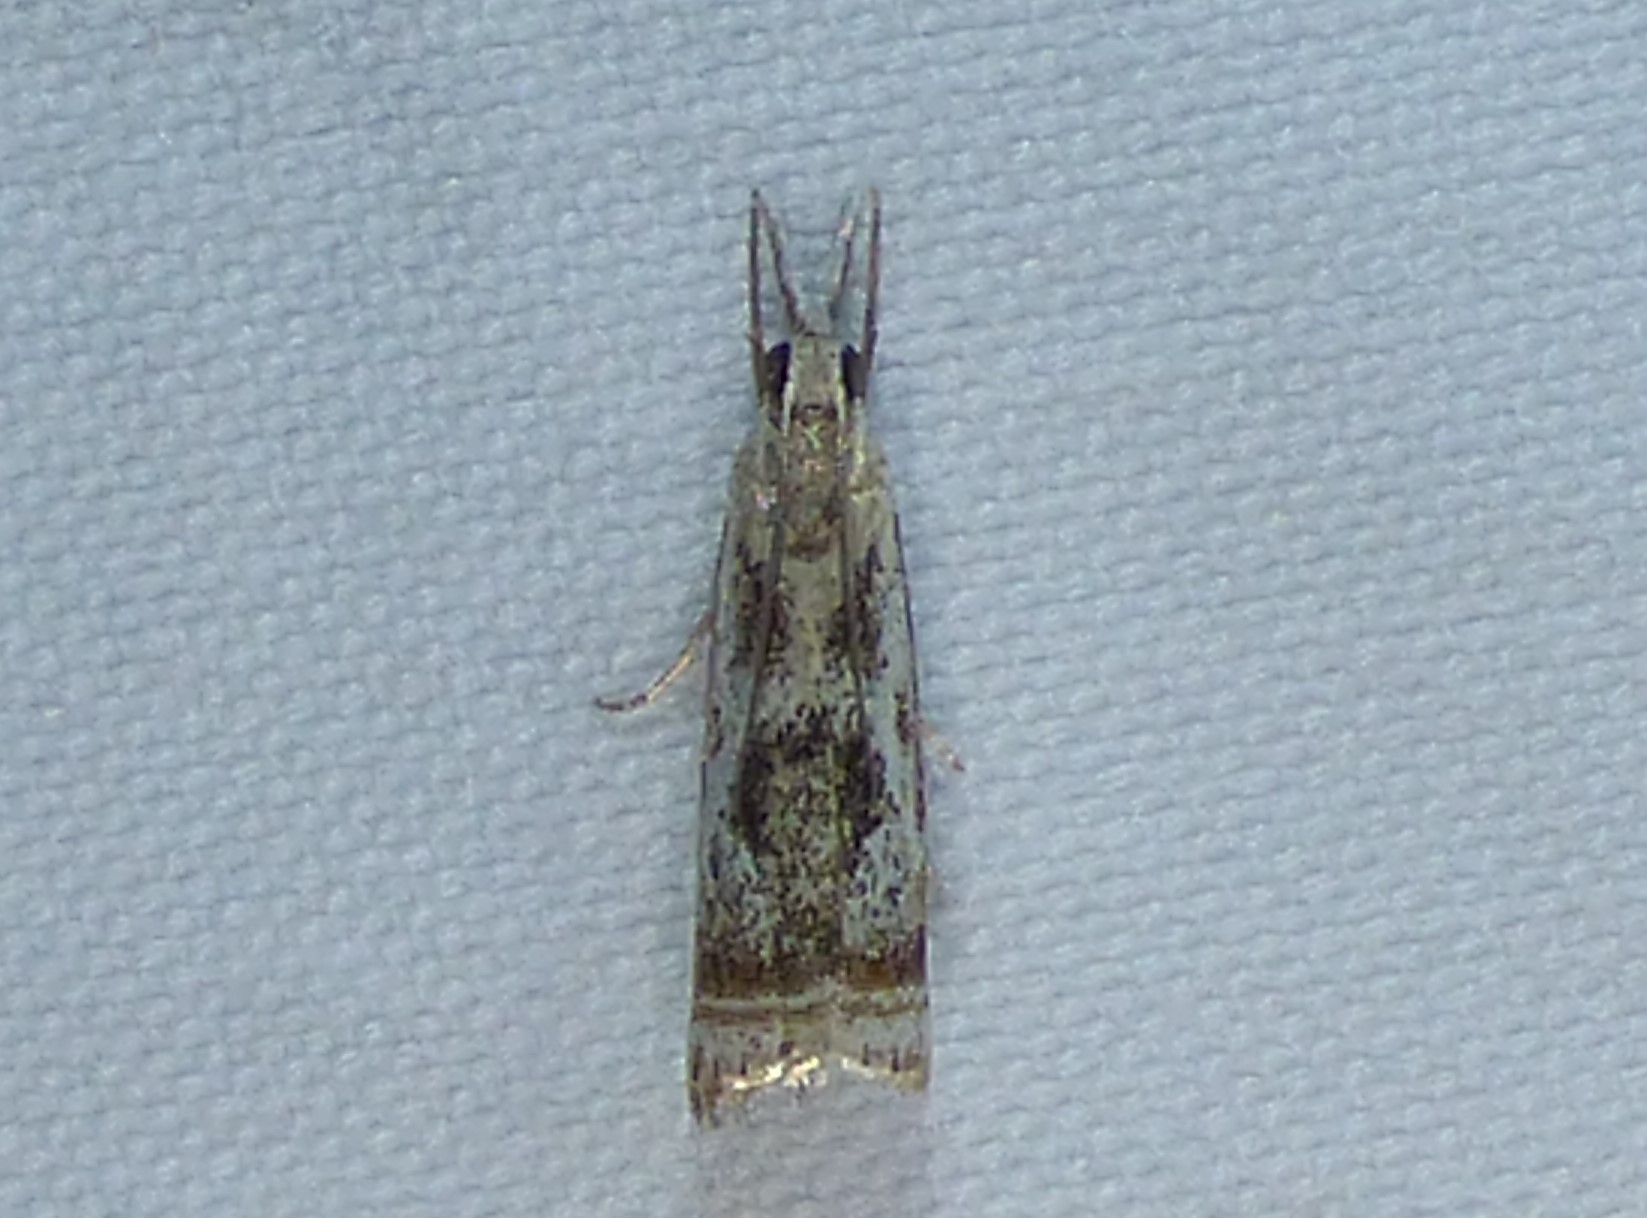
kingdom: Animalia
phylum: Arthropoda
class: Insecta
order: Lepidoptera
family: Crambidae
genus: Microcrambus
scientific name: Microcrambus elegans
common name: Elegant grass-veneer
